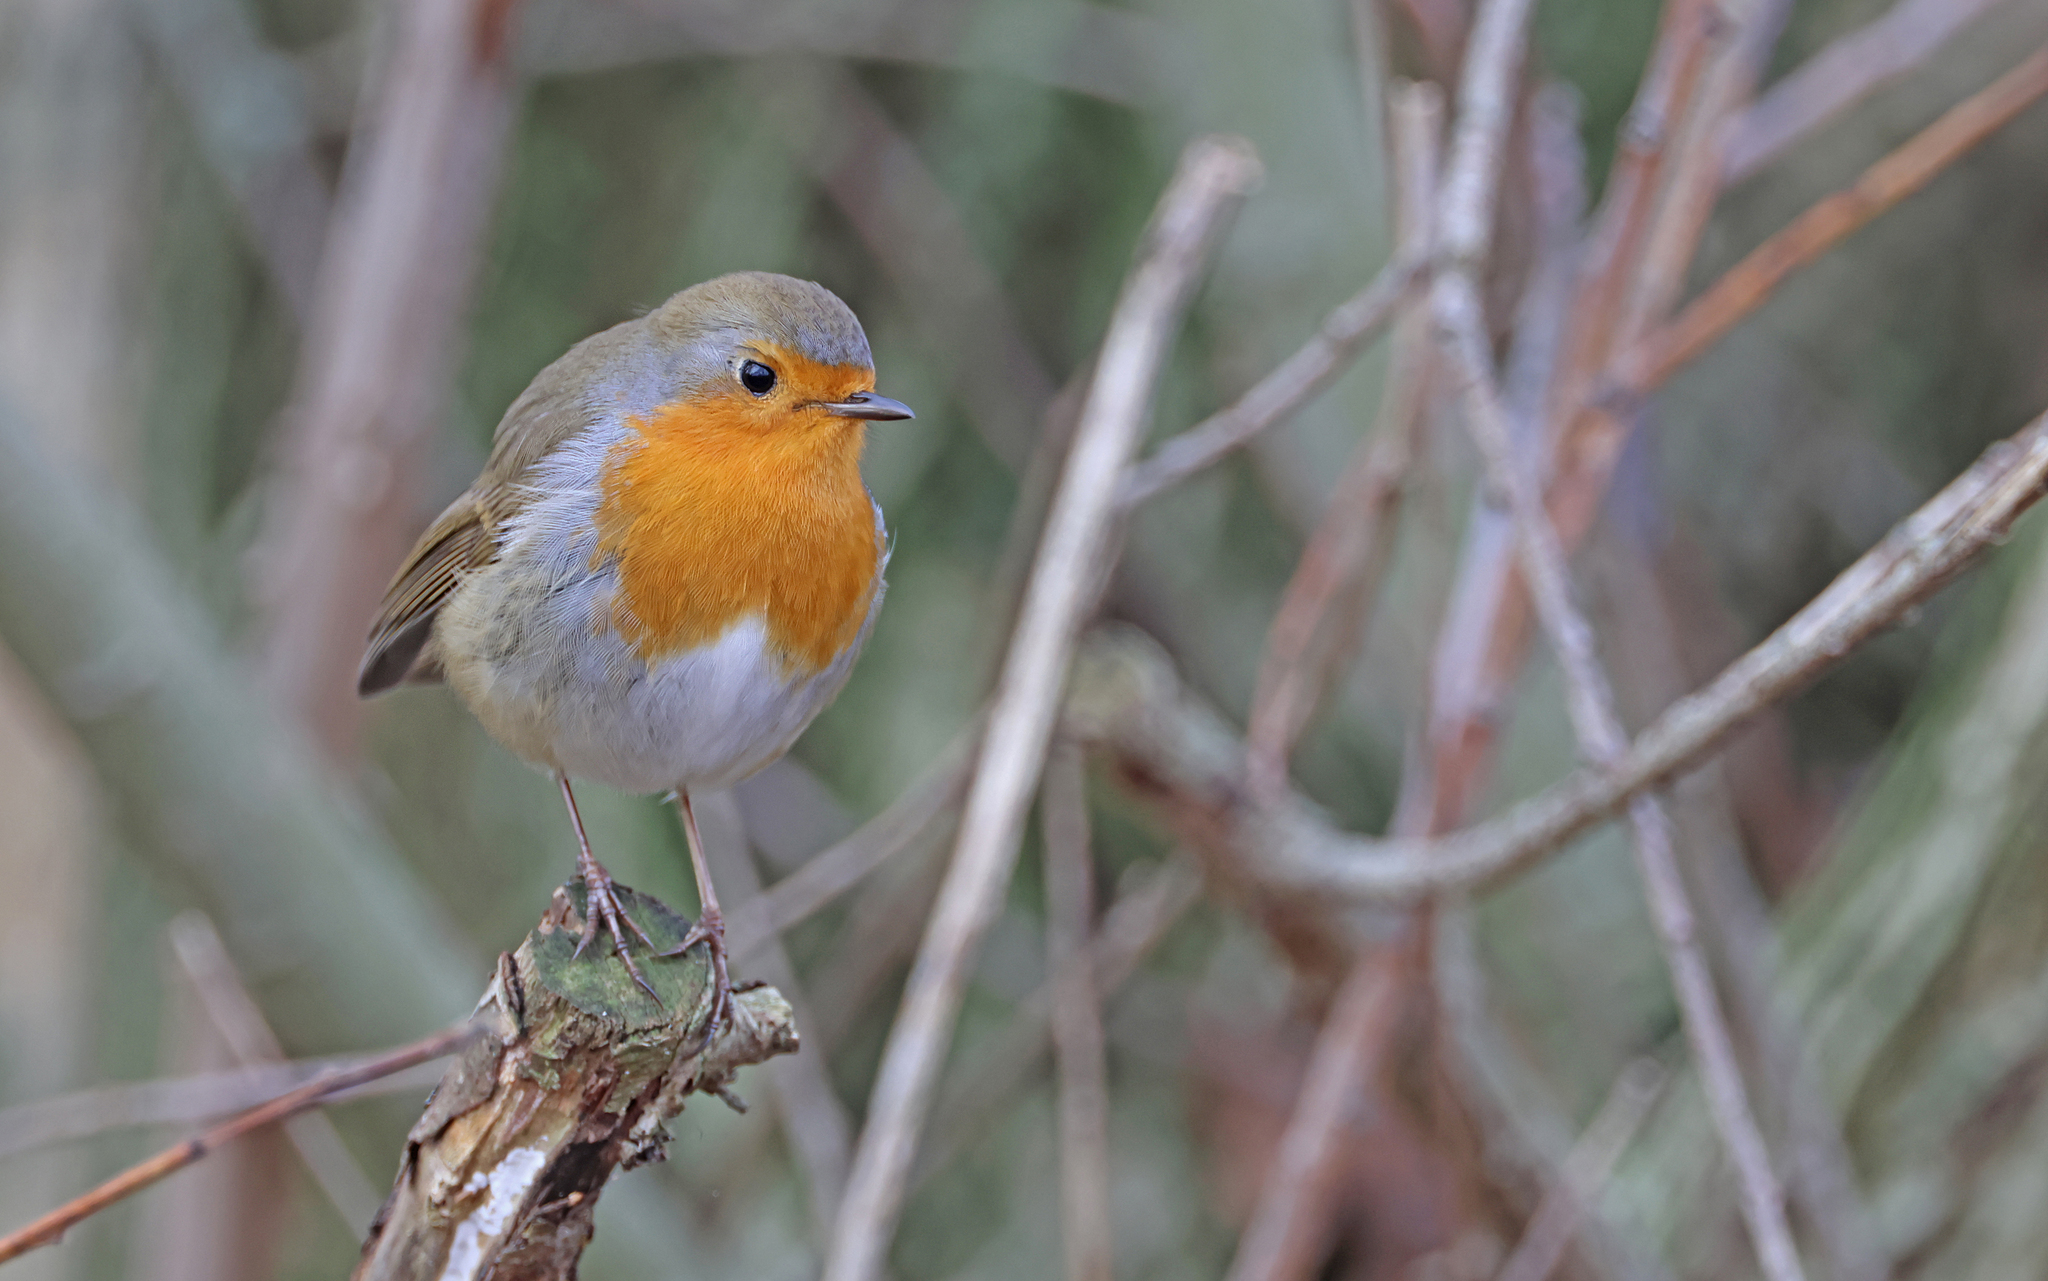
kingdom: Animalia
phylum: Chordata
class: Aves
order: Passeriformes
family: Muscicapidae
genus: Erithacus
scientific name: Erithacus rubecula
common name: European robin
